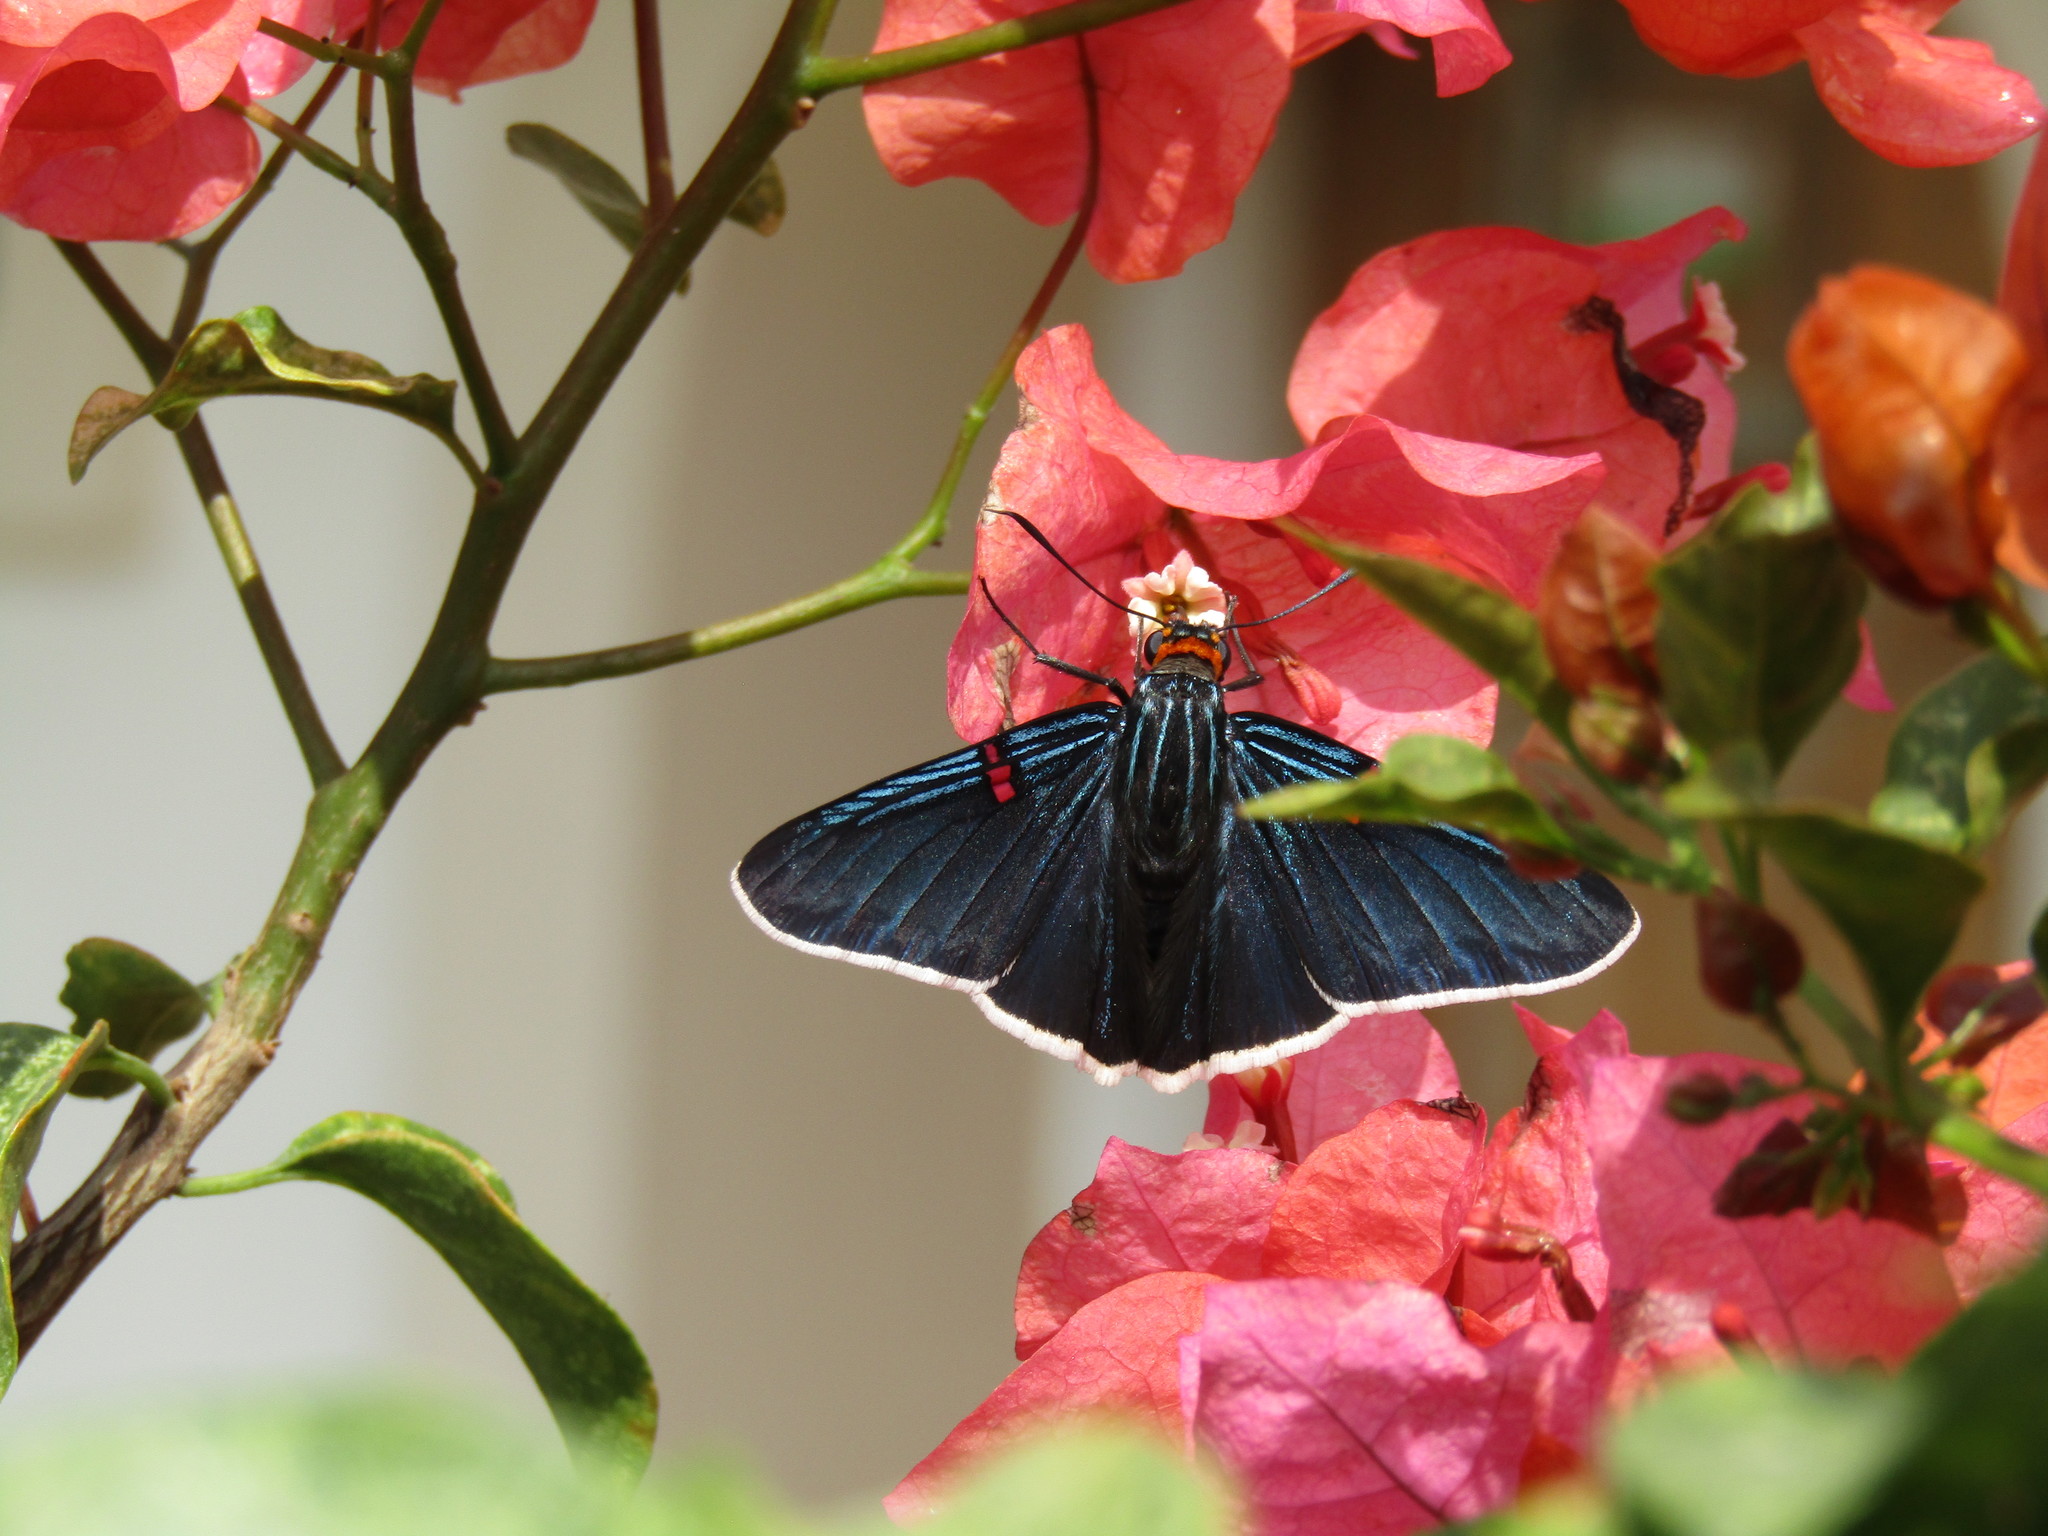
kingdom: Animalia
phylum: Arthropoda
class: Insecta
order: Lepidoptera
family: Hesperiidae
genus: Phocides
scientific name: Phocides lilea
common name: Guava skipper
